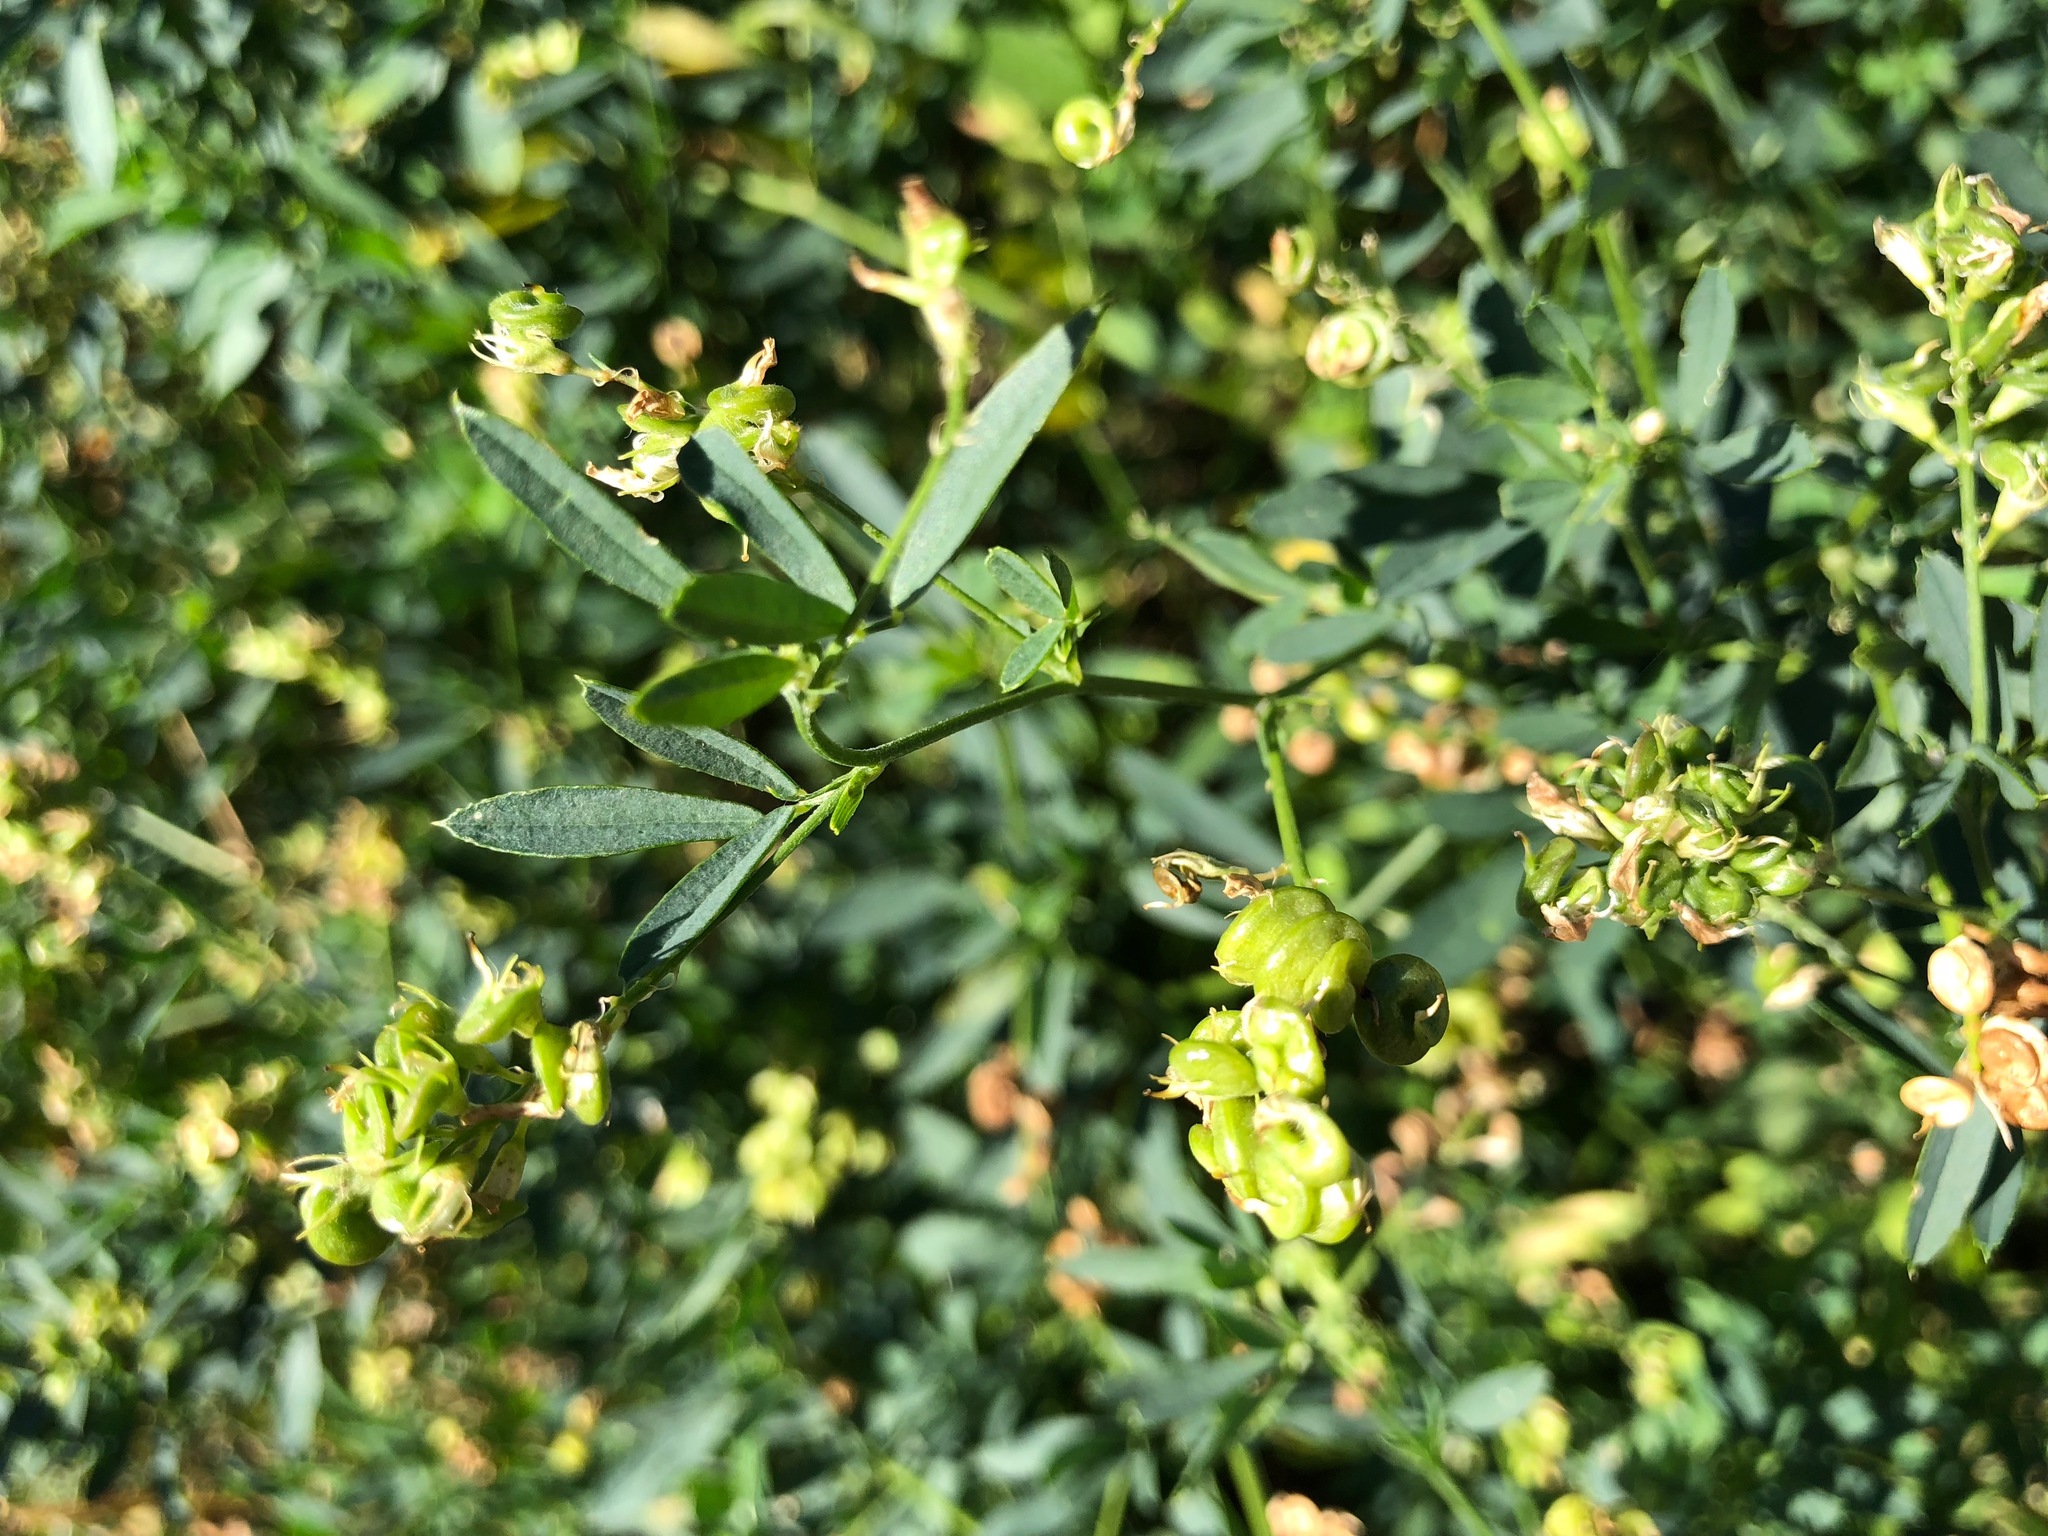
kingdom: Plantae
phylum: Tracheophyta
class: Magnoliopsida
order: Fabales
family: Fabaceae
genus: Medicago
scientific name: Medicago sativa
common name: Alfalfa
